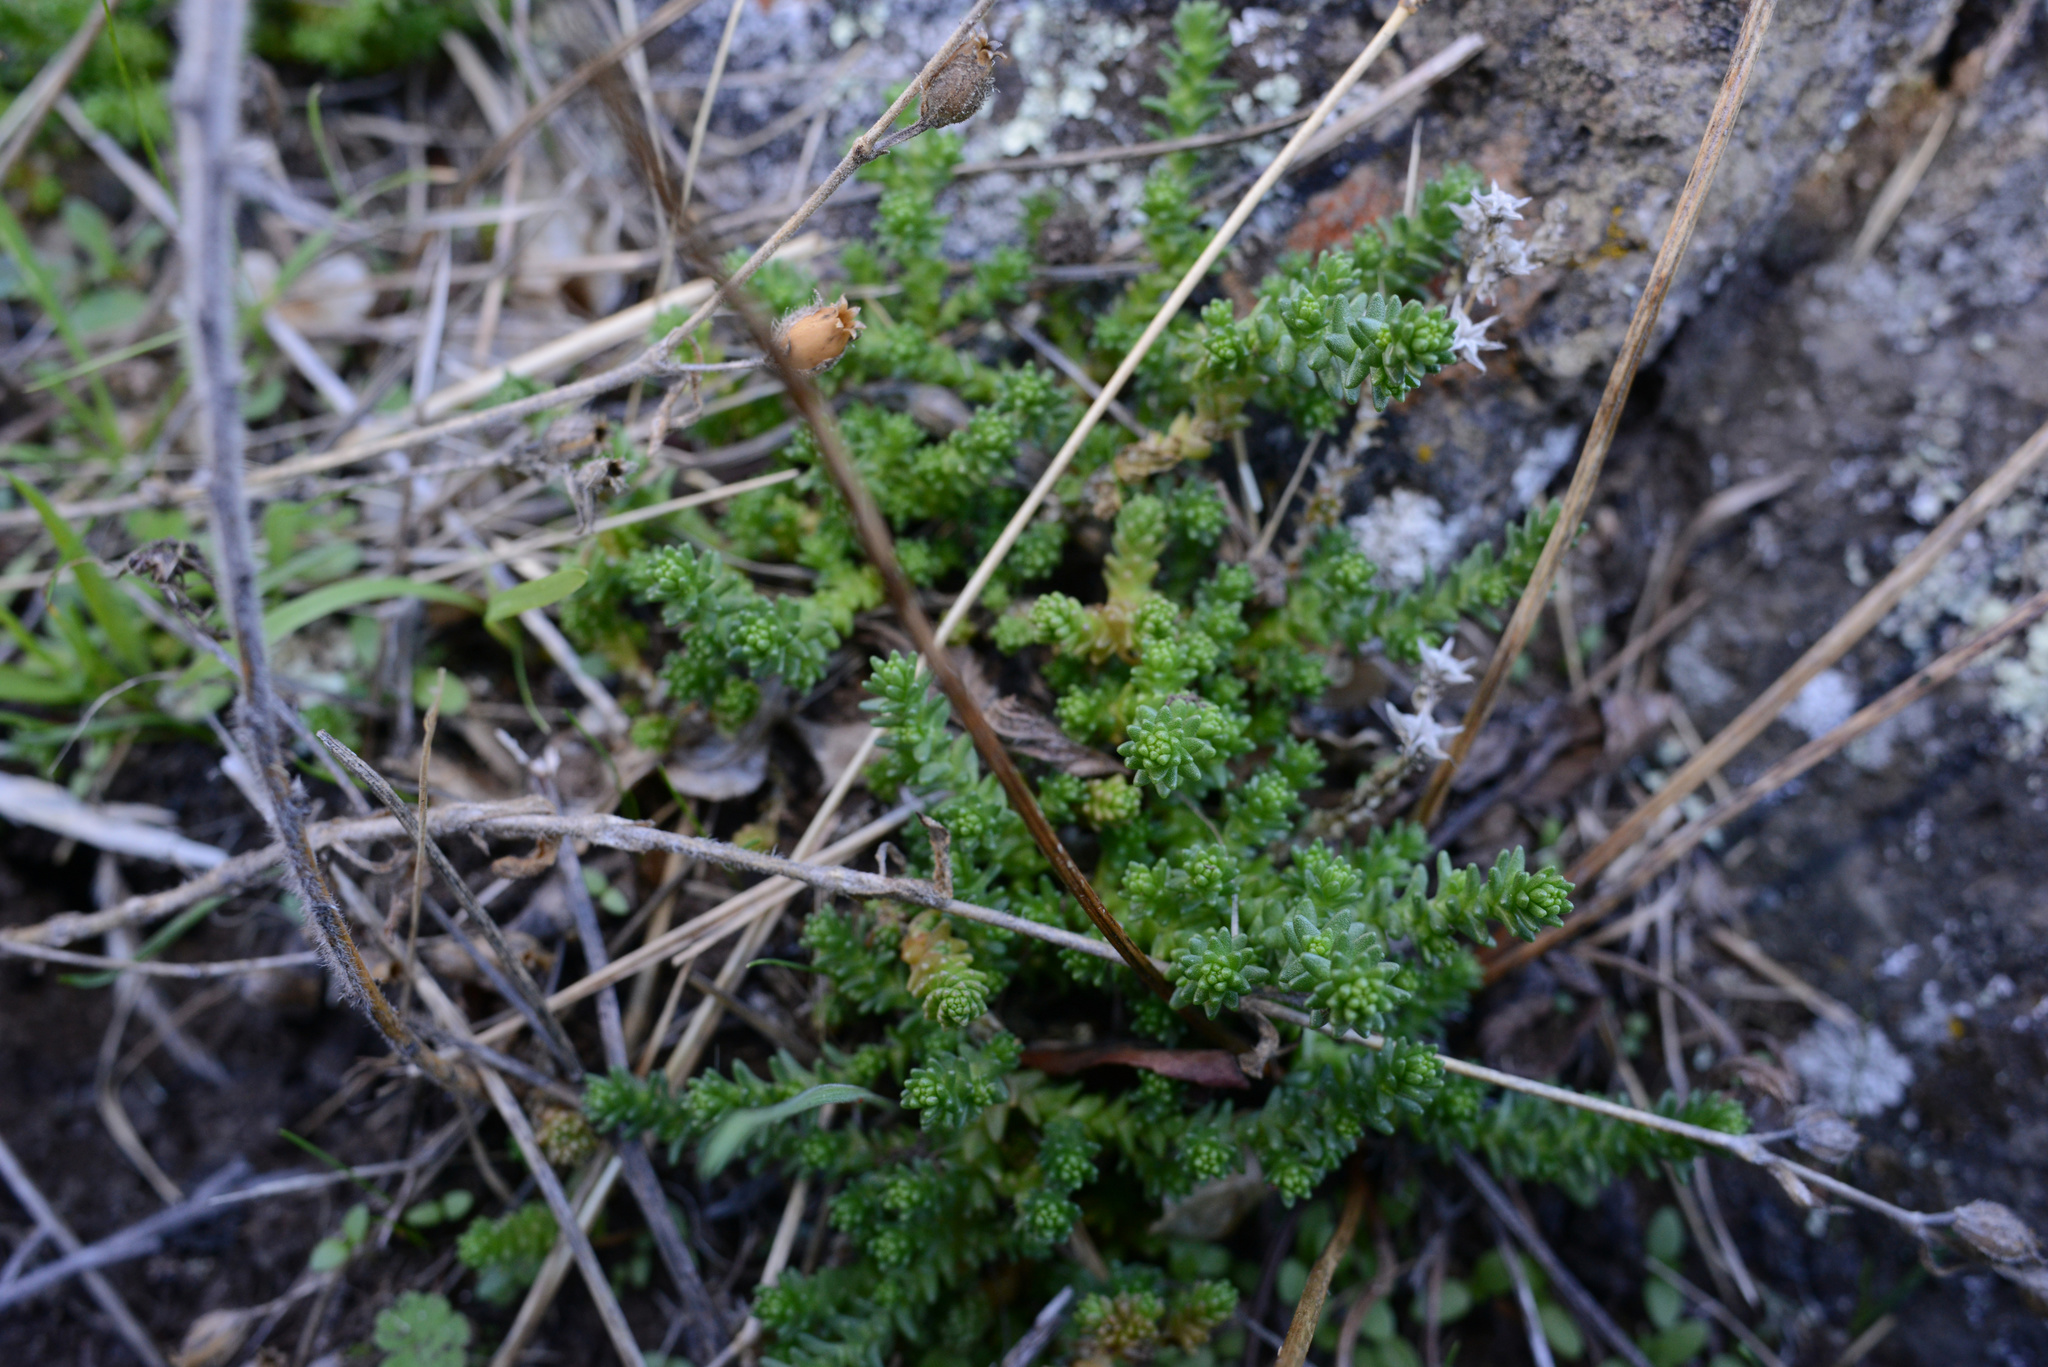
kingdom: Plantae
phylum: Tracheophyta
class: Magnoliopsida
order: Saxifragales
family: Crassulaceae
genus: Sedum
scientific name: Sedum acre
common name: Biting stonecrop
